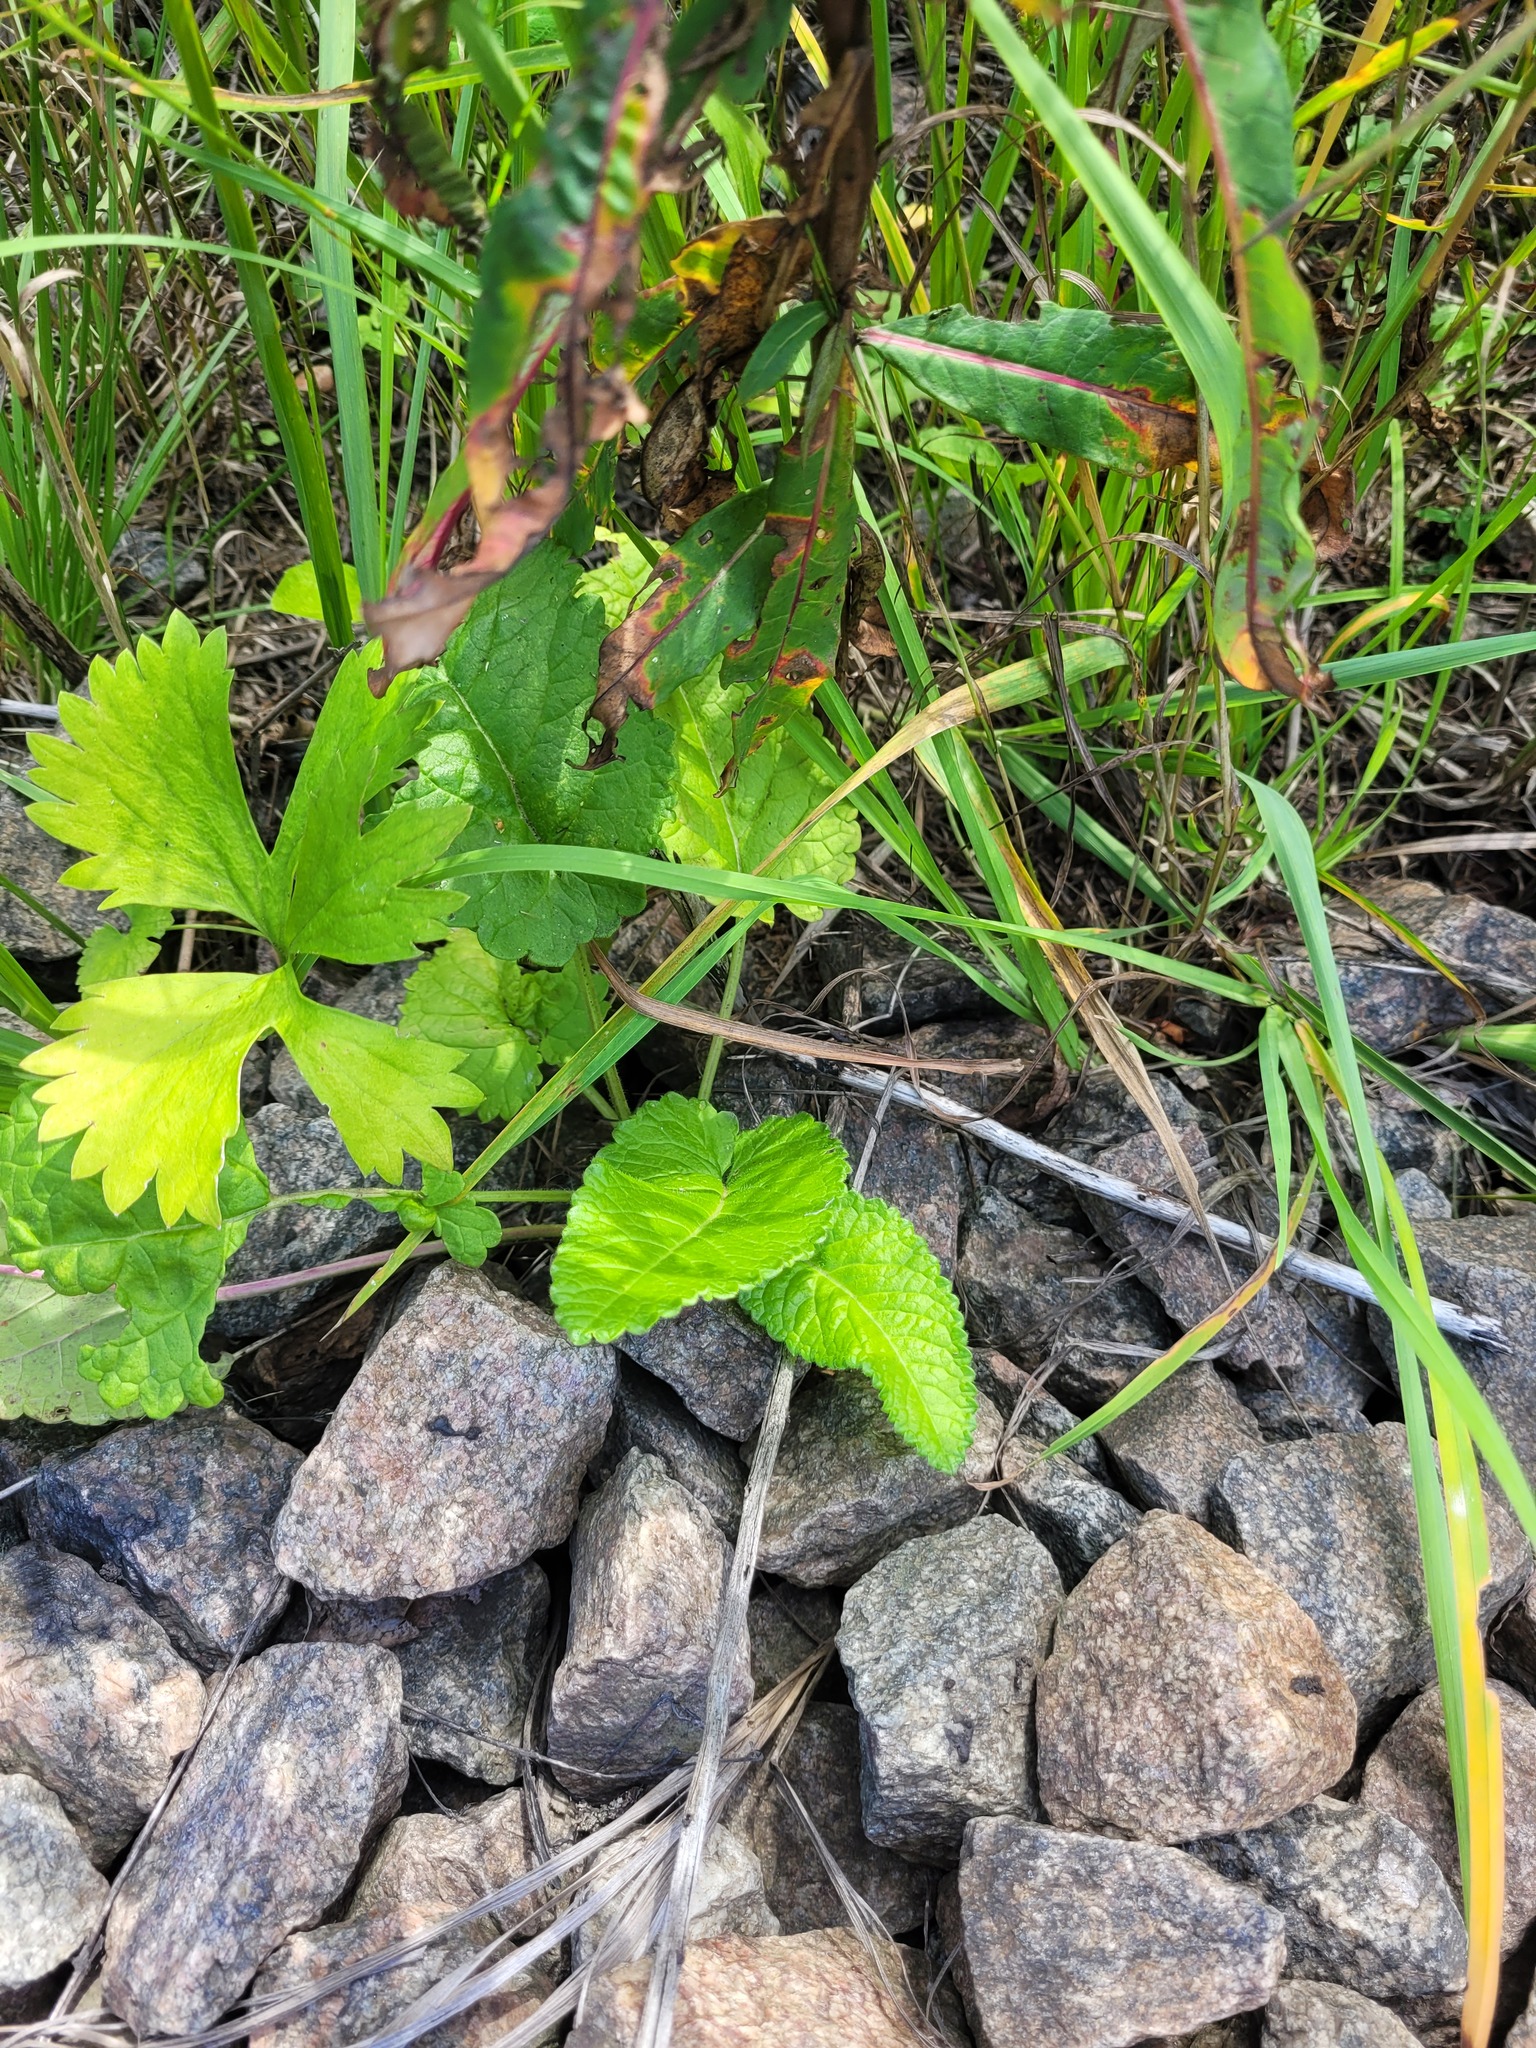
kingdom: Plantae
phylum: Tracheophyta
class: Magnoliopsida
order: Lamiales
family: Lamiaceae
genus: Betonica
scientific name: Betonica officinalis
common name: Bishop's-wort
